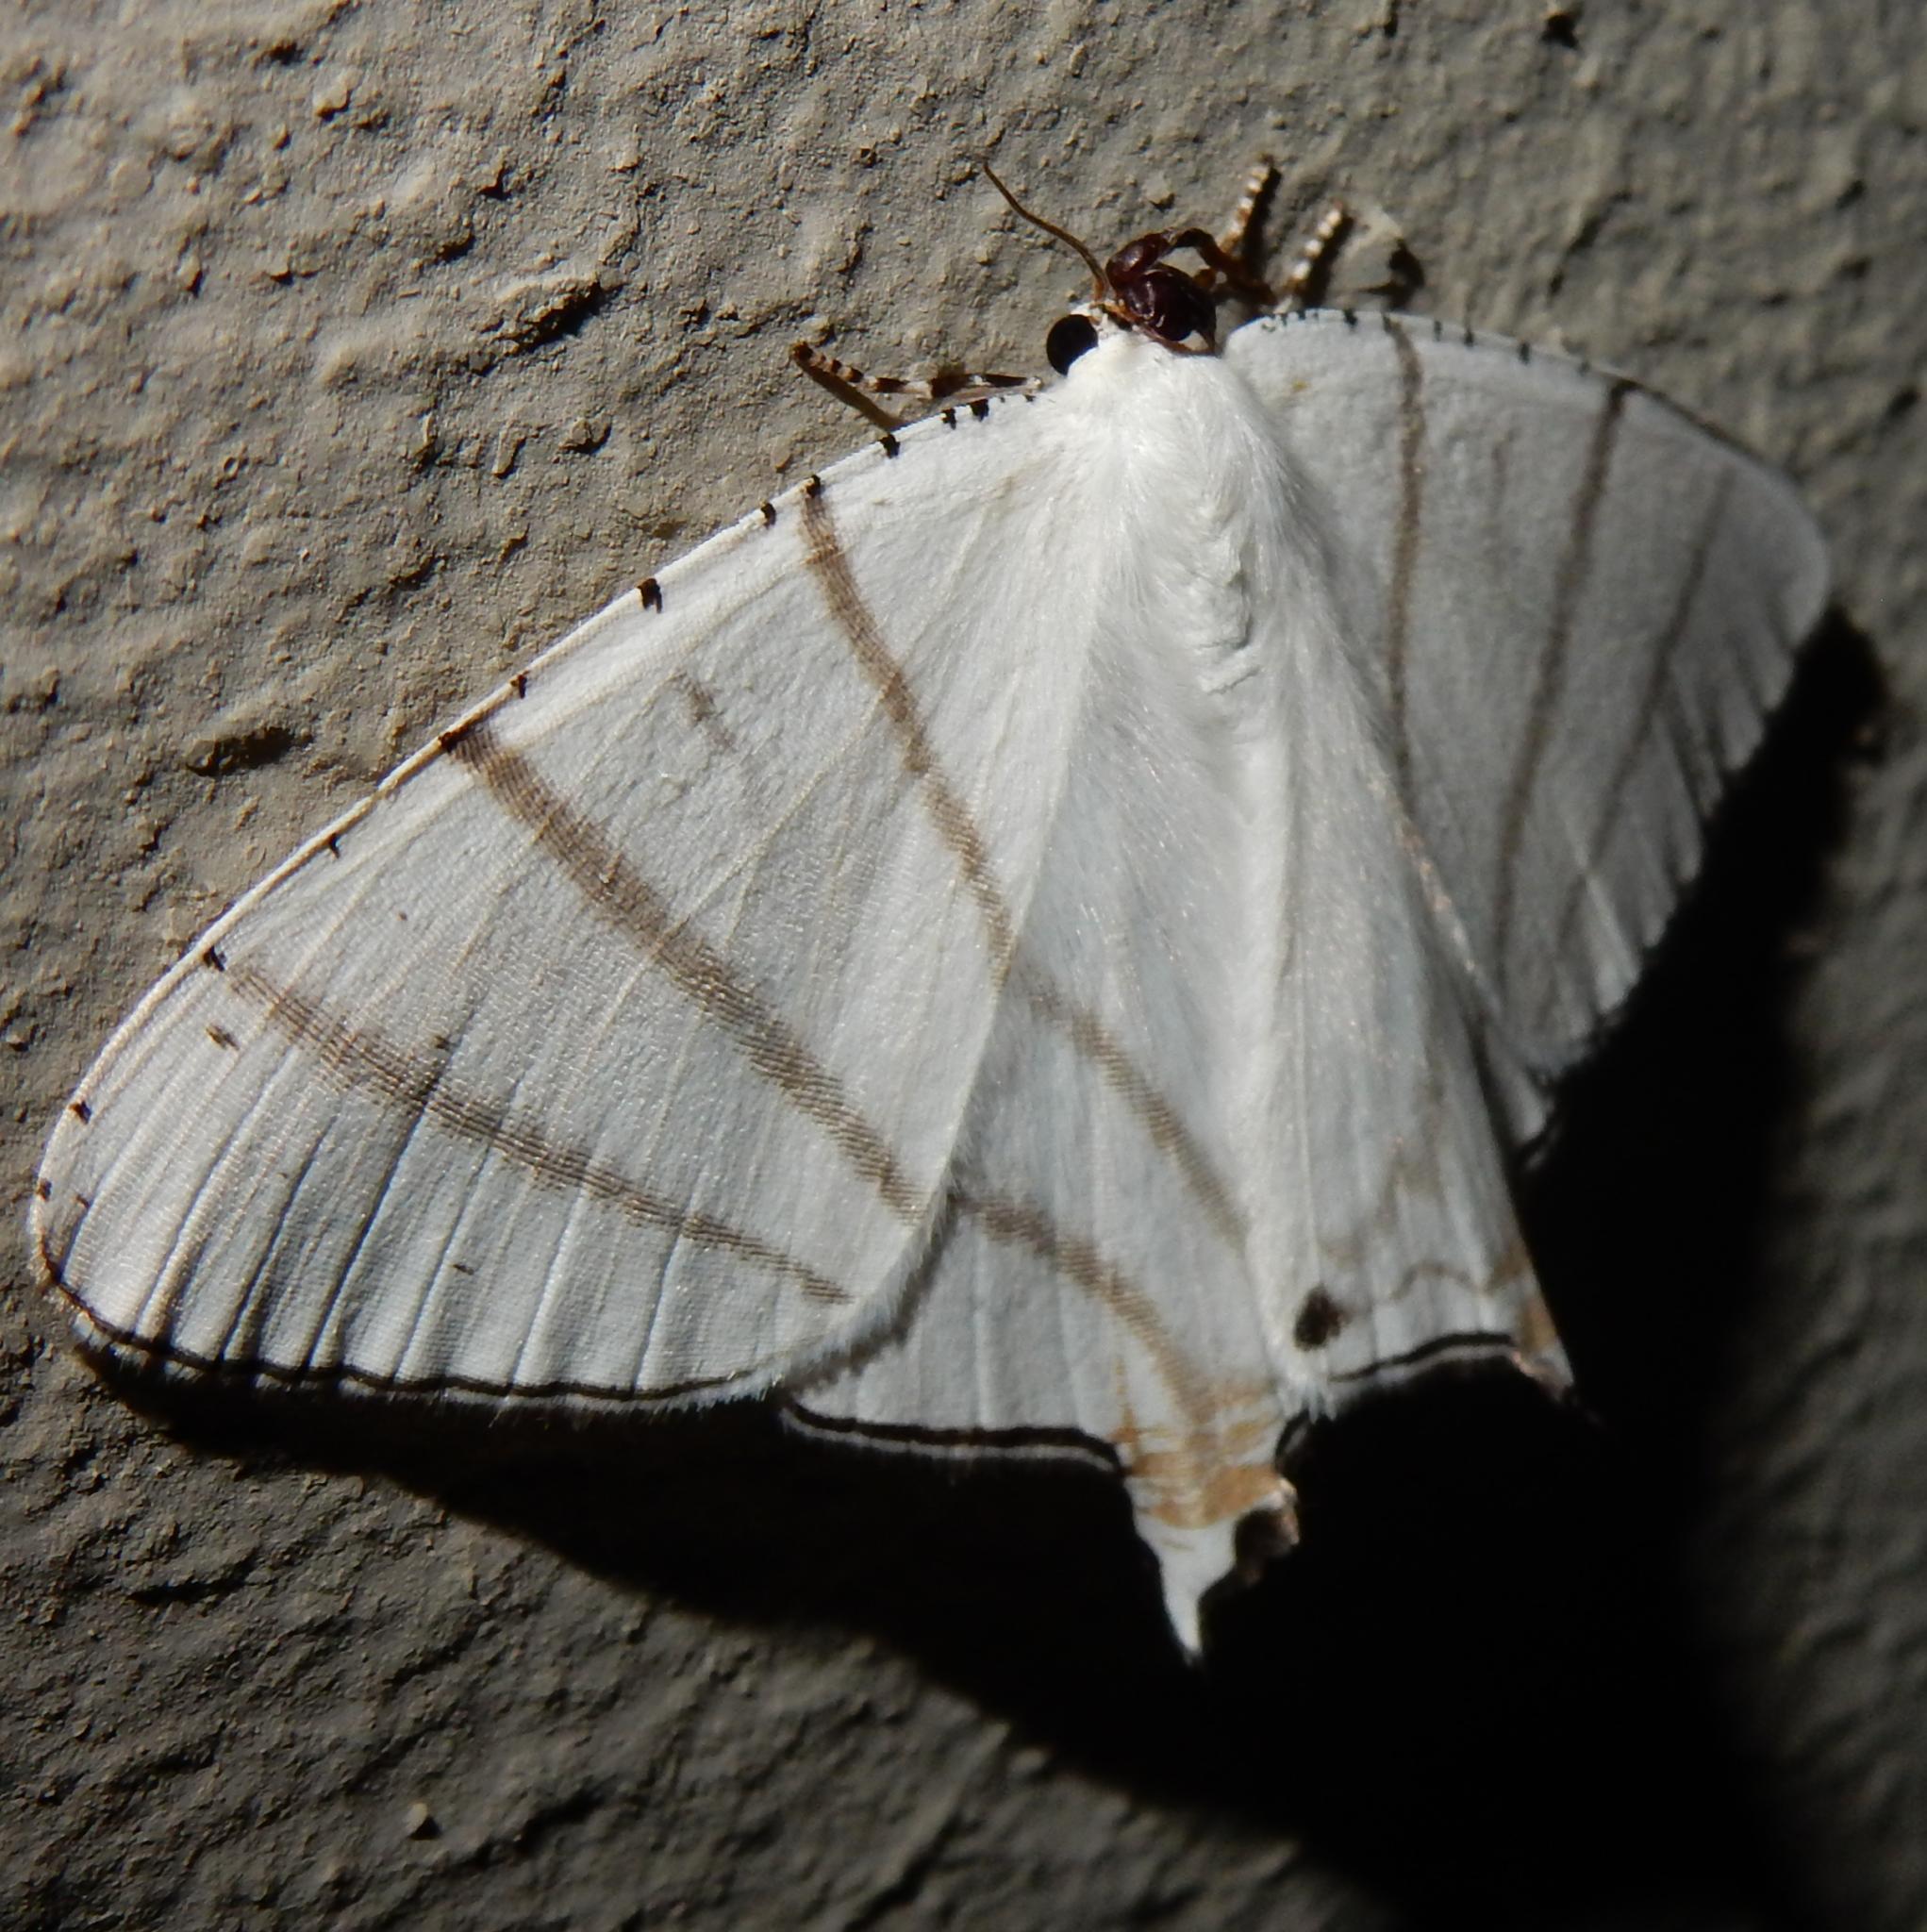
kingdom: Animalia
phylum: Arthropoda
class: Insecta
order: Lepidoptera
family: Uraniidae
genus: Urapteroides
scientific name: Urapteroides recurvata
